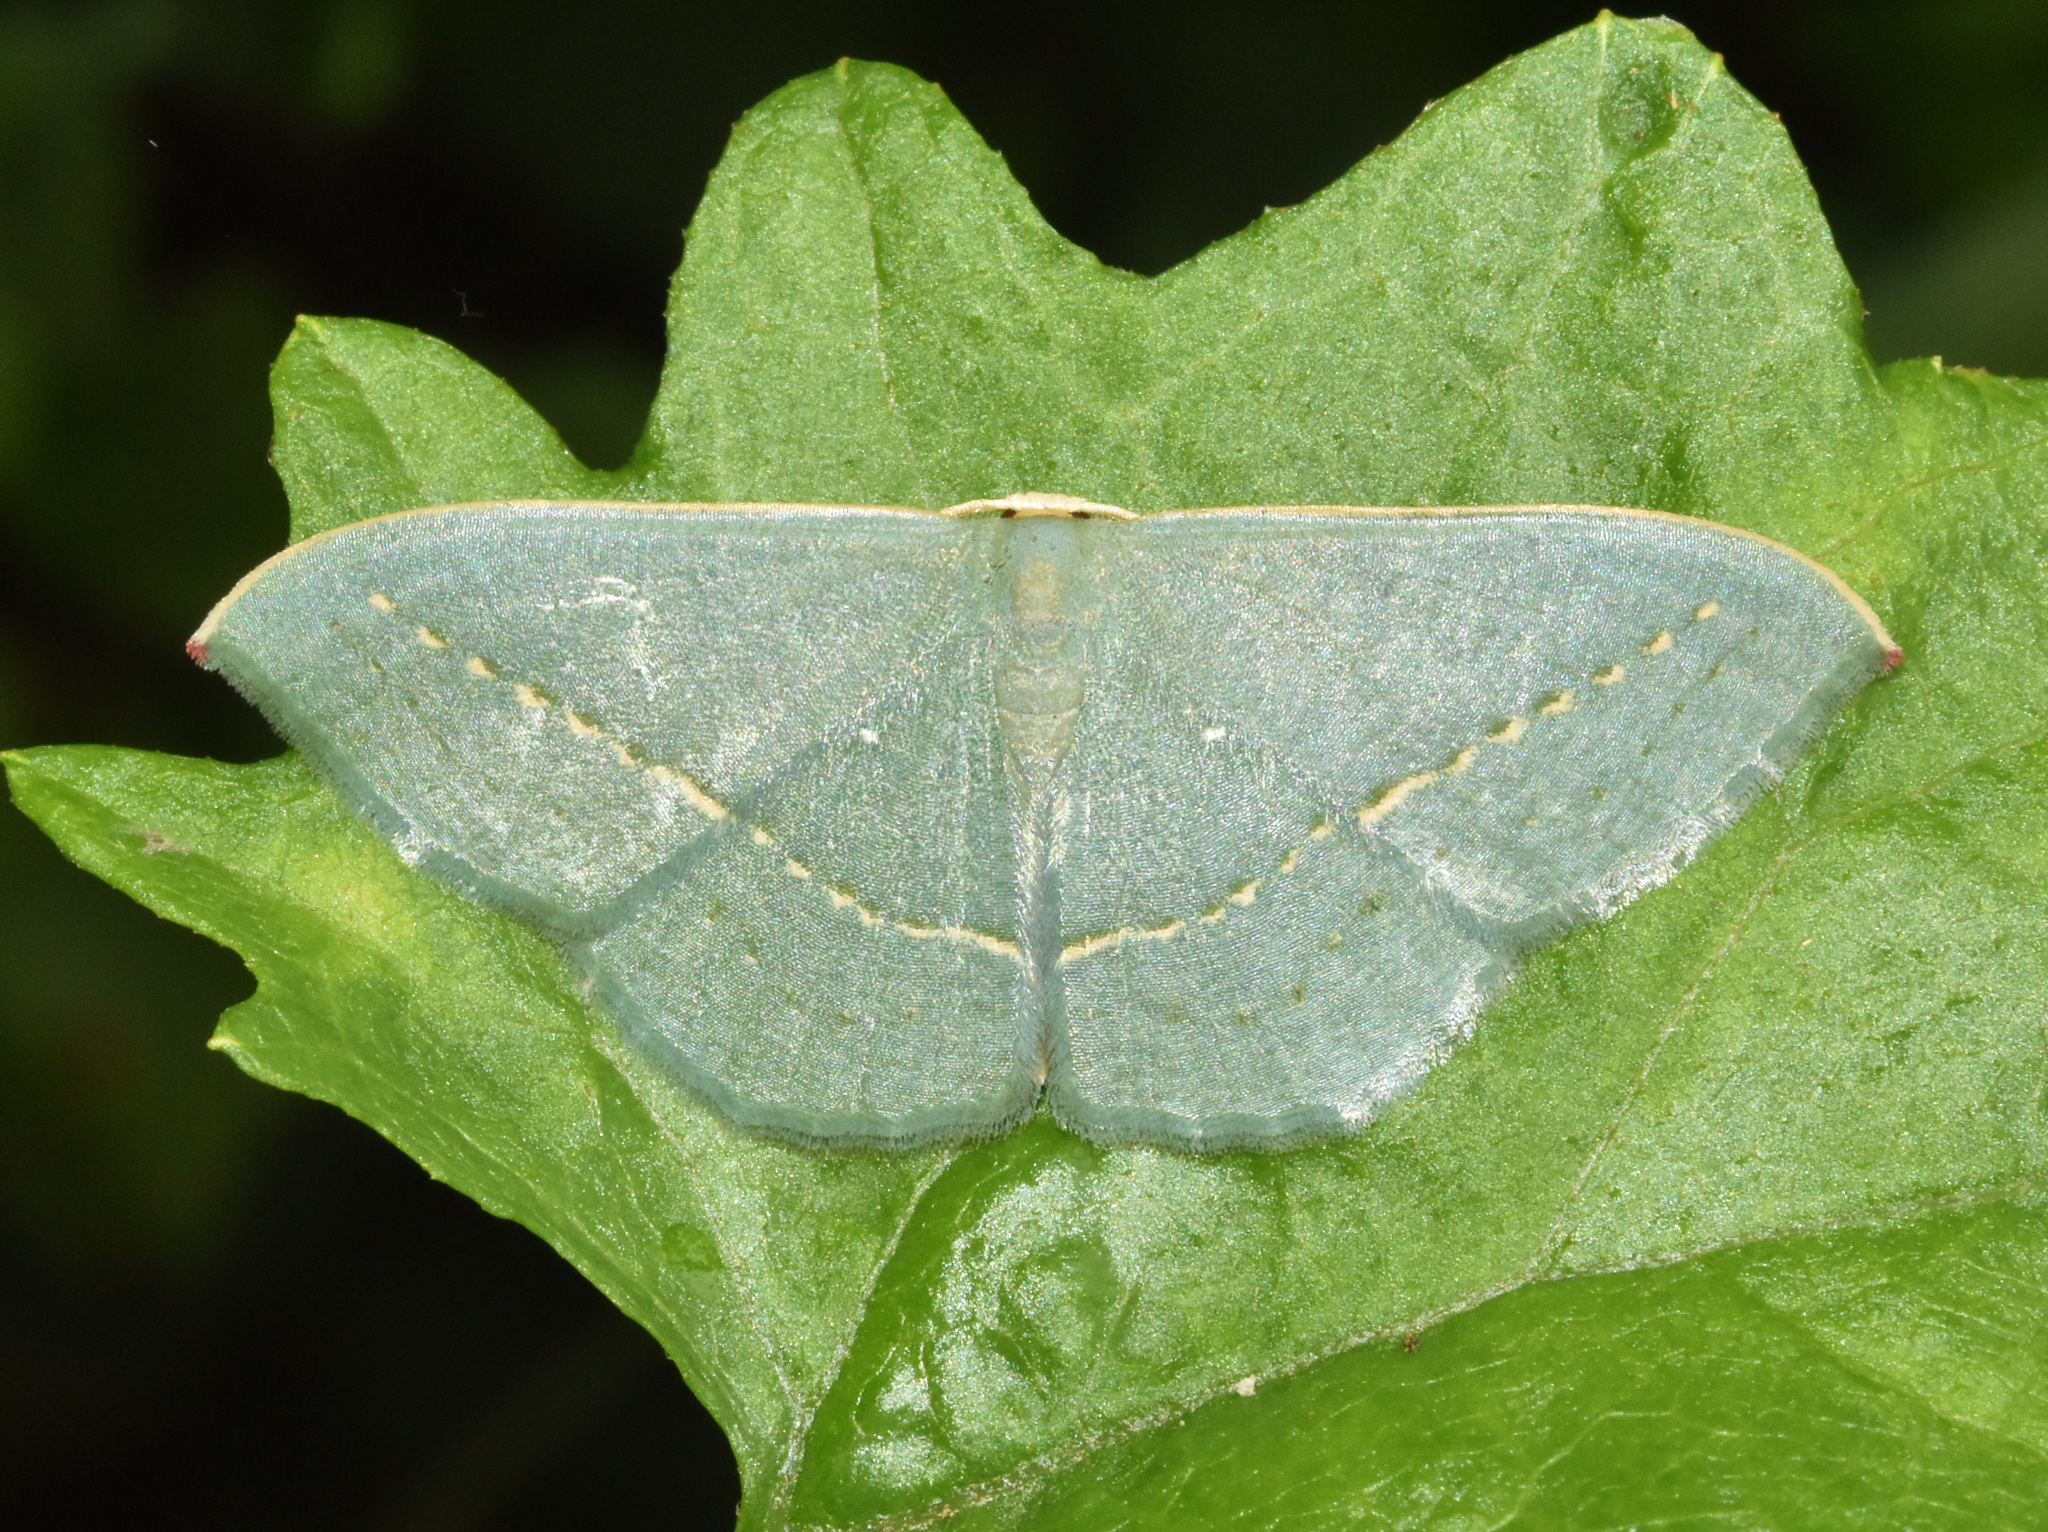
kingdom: Animalia
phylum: Arthropoda
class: Insecta
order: Lepidoptera
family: Geometridae
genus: Traminda
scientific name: Traminda obversata
